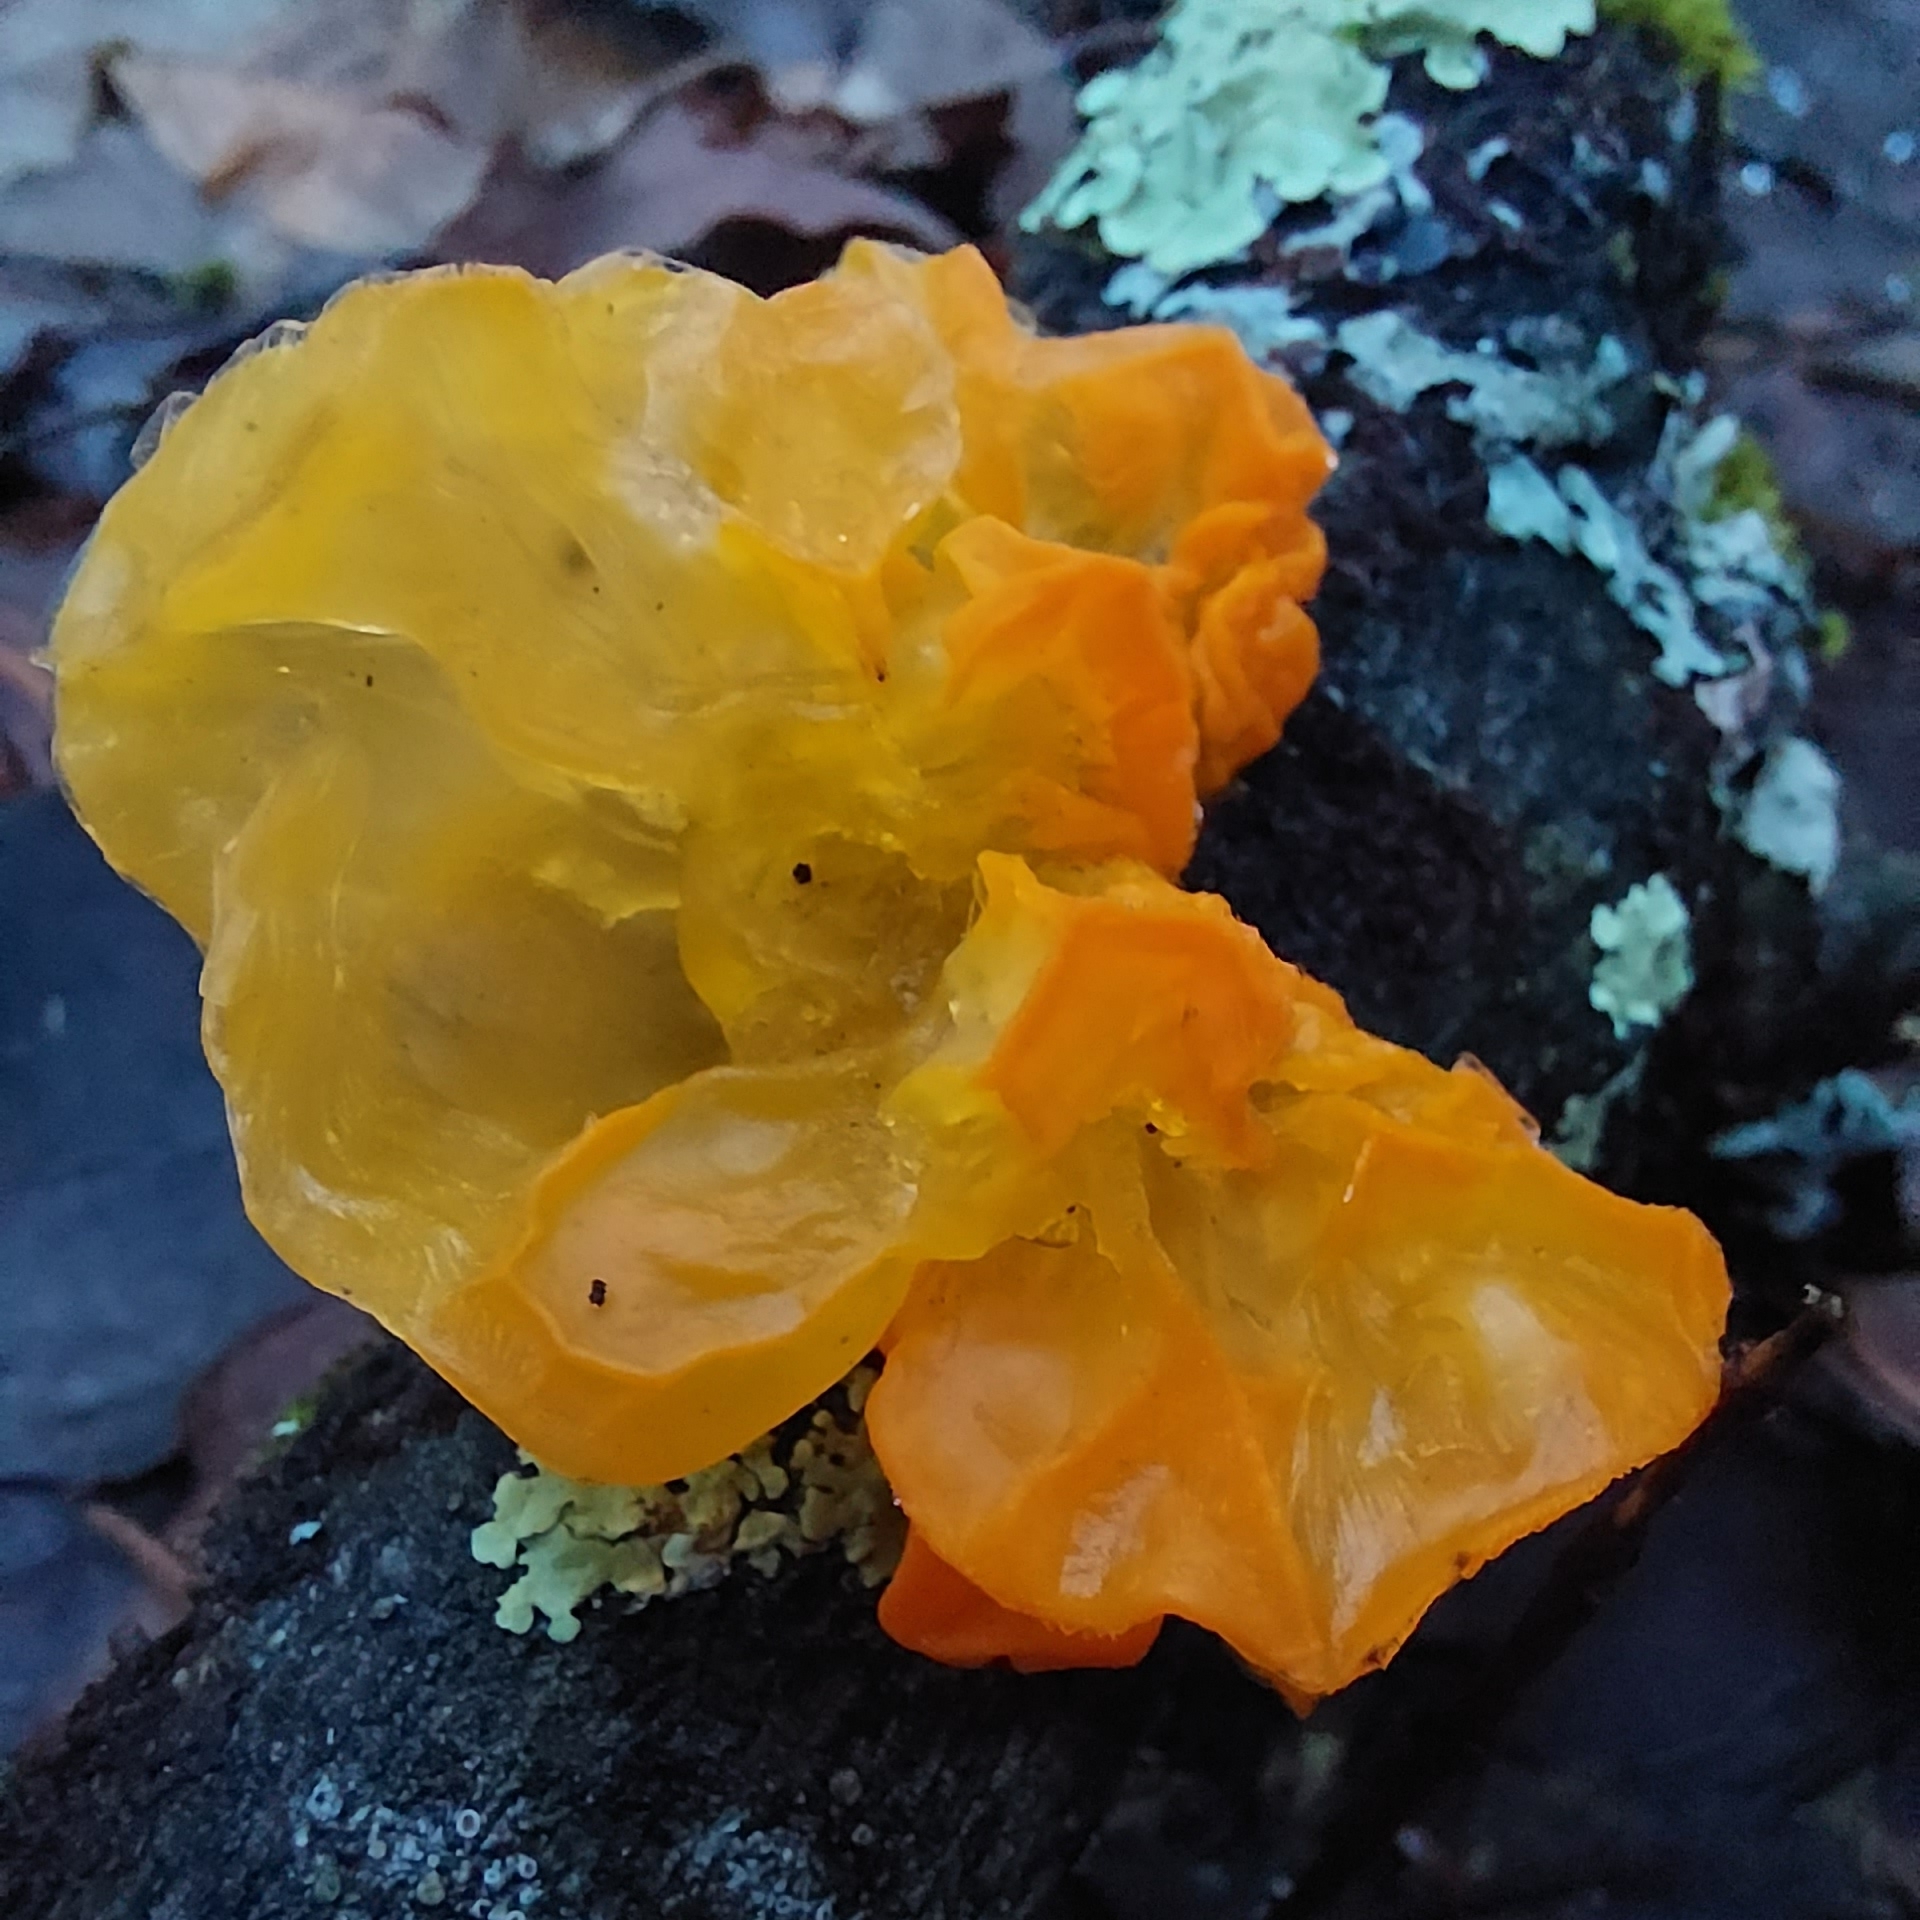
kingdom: Fungi
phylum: Basidiomycota
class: Tremellomycetes
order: Tremellales
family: Tremellaceae
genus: Tremella
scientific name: Tremella mesenterica
